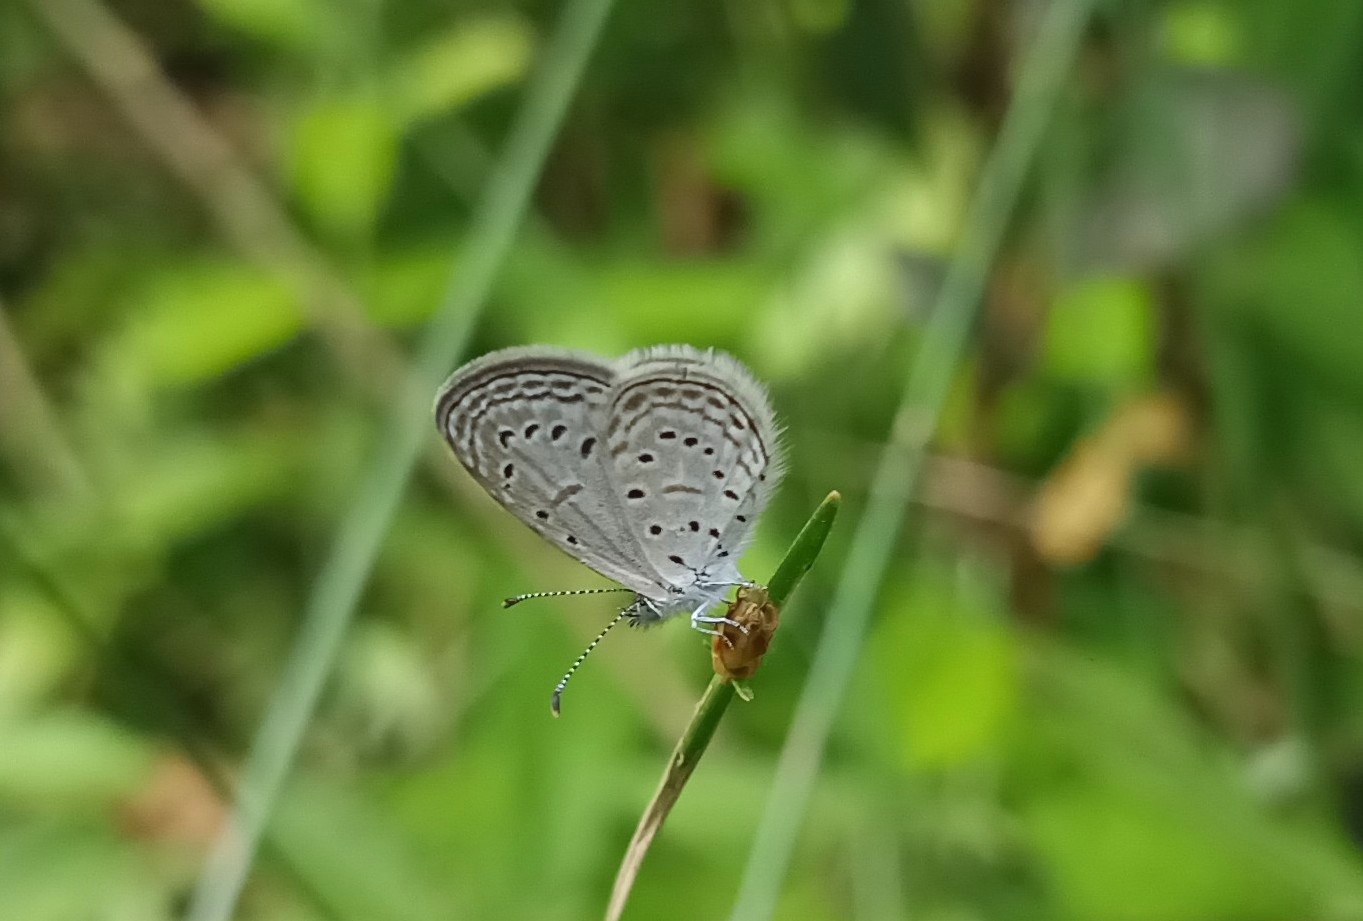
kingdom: Animalia
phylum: Arthropoda
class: Insecta
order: Lepidoptera
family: Lycaenidae
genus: Zizula
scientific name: Zizula hylax
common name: Gaika blue
